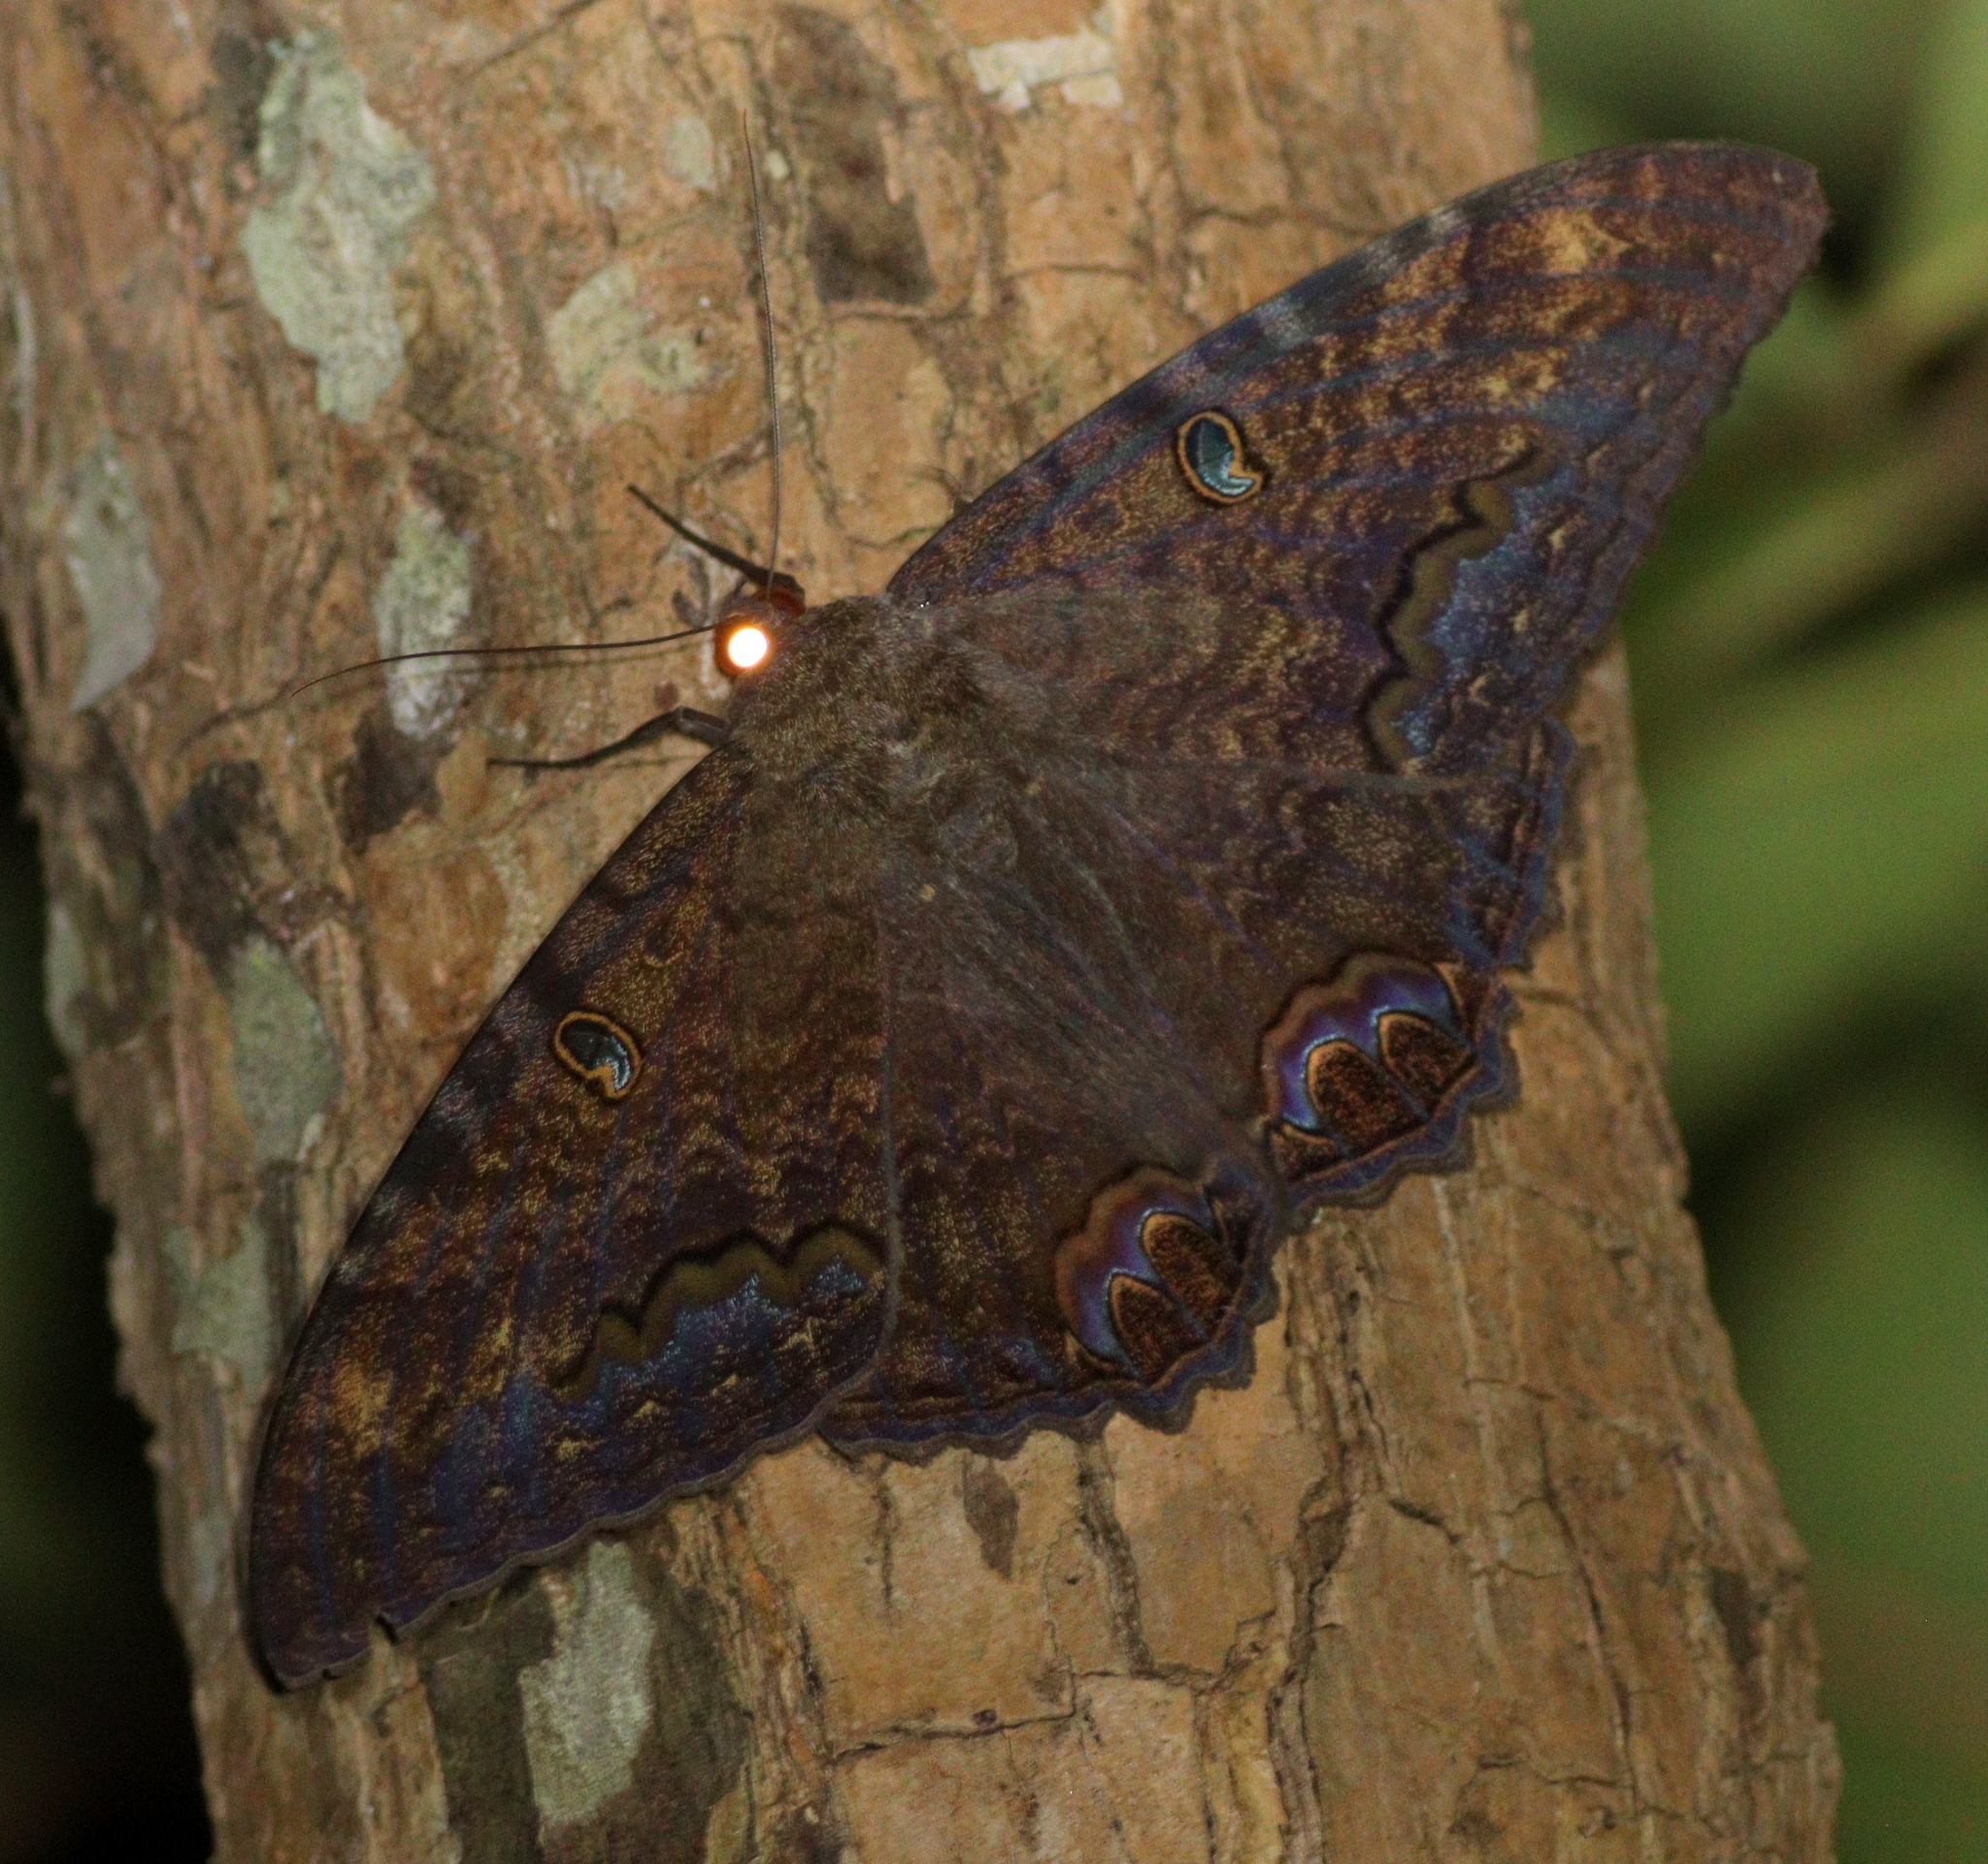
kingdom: Animalia
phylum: Arthropoda
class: Insecta
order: Lepidoptera
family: Erebidae
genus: Ascalapha
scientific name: Ascalapha odorata
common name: Black witch
